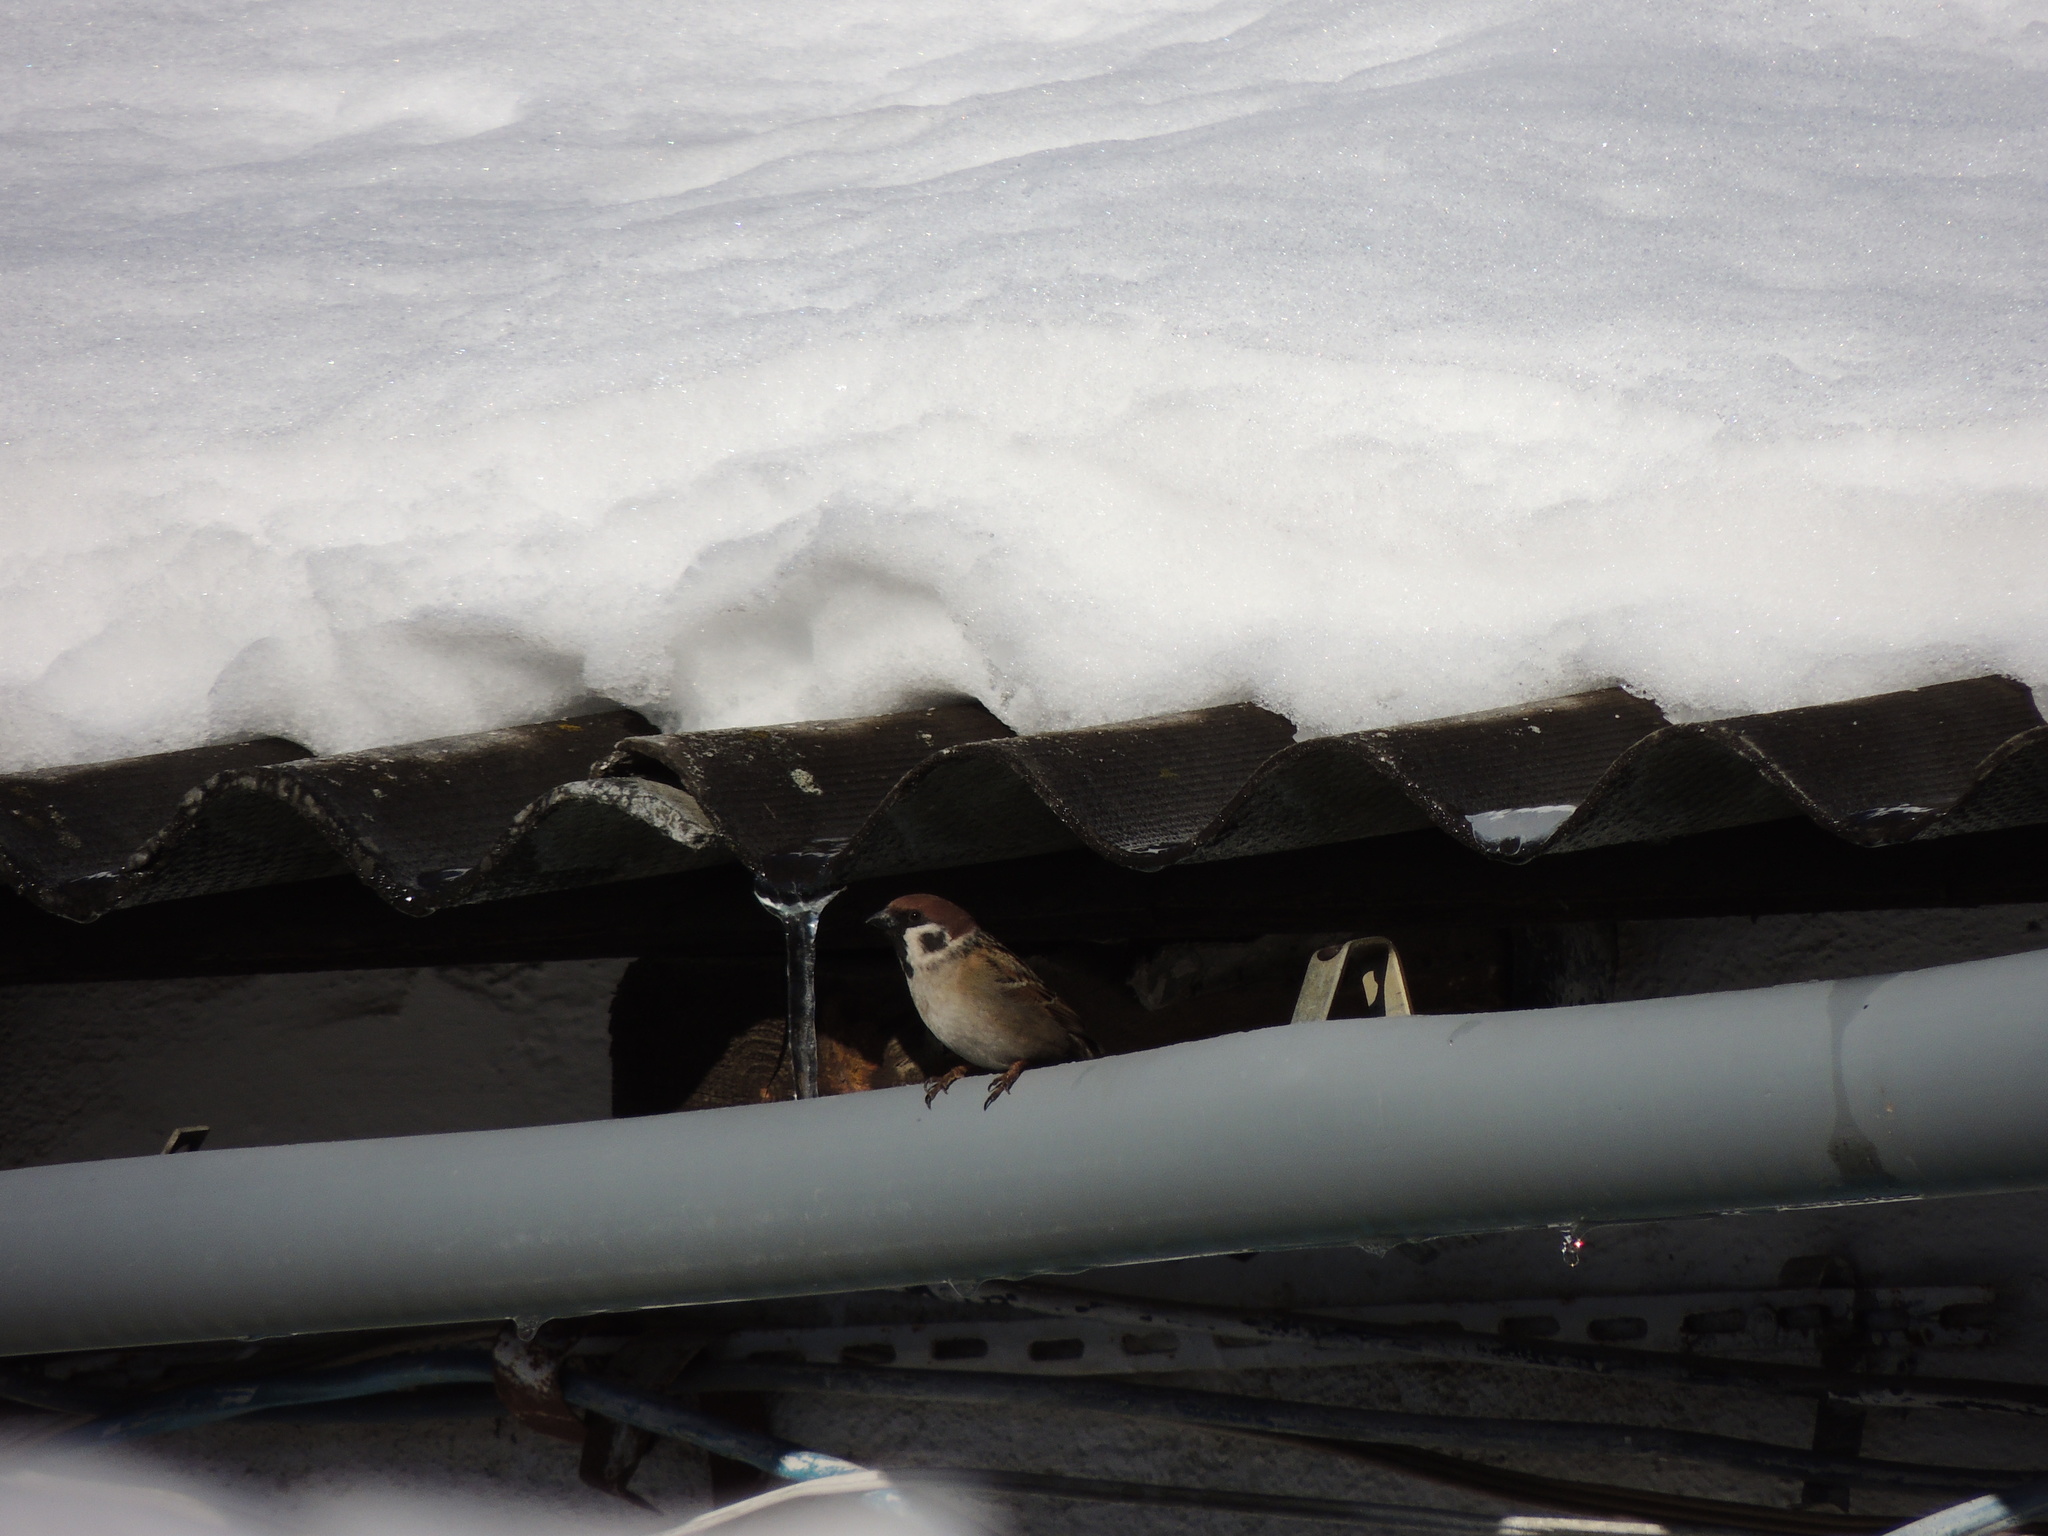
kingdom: Animalia
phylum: Chordata
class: Aves
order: Passeriformes
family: Passeridae
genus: Passer
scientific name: Passer montanus
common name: Eurasian tree sparrow
